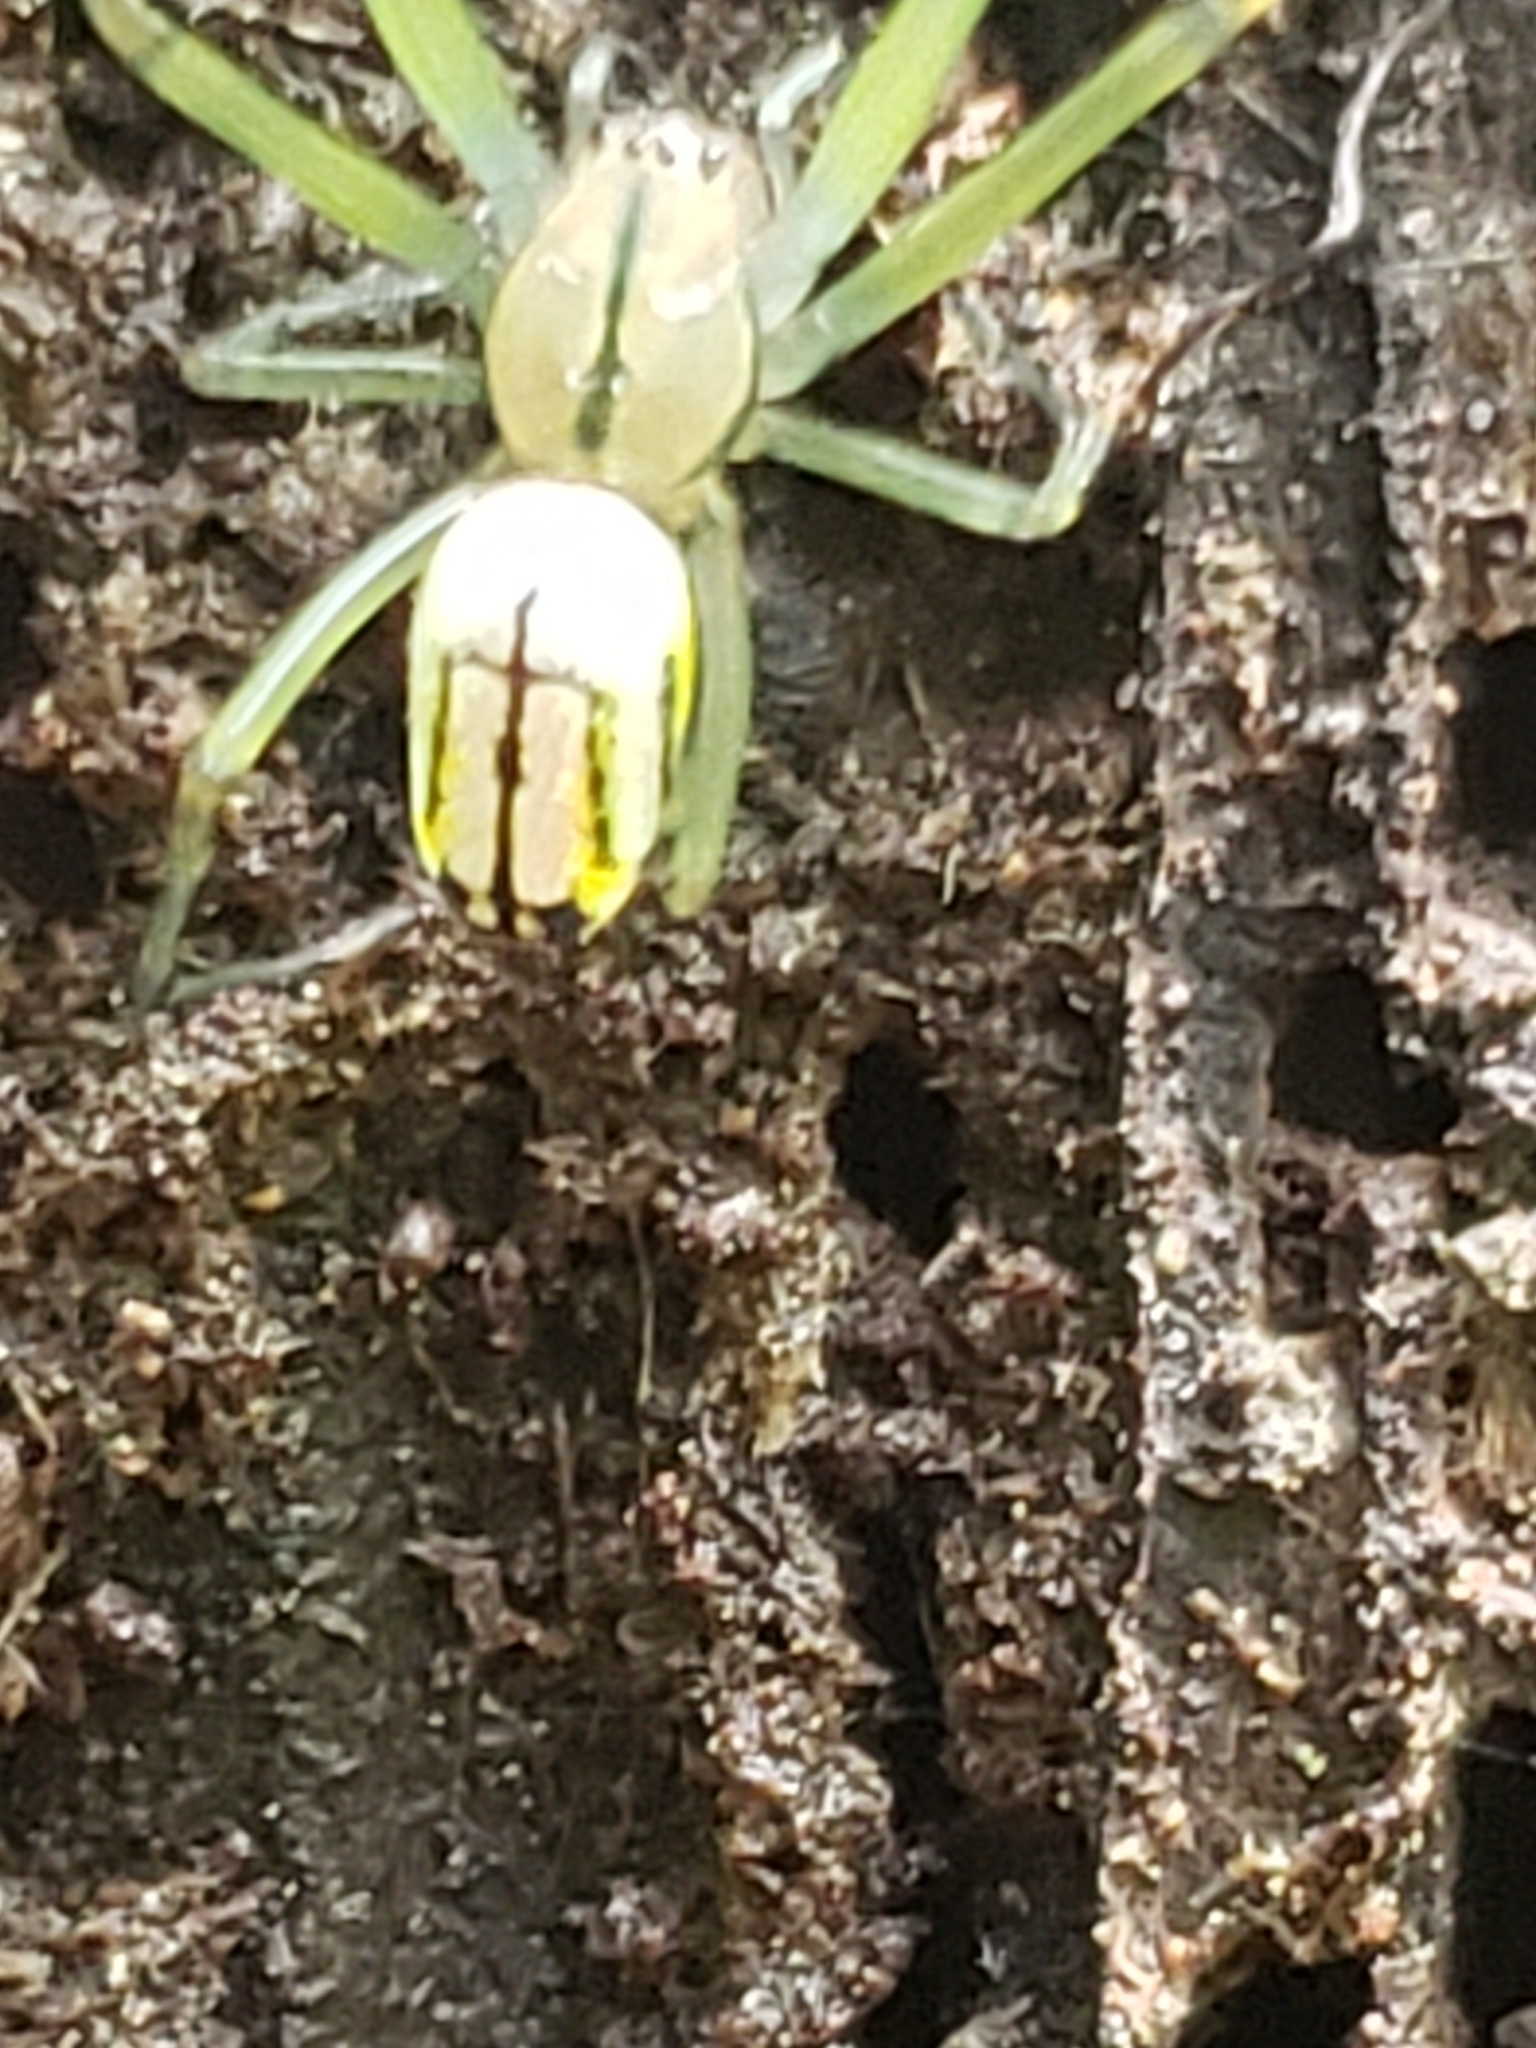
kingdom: Animalia
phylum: Arthropoda
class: Arachnida
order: Araneae
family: Tetragnathidae
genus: Leucauge
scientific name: Leucauge venusta
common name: Longjawed orb weavers
